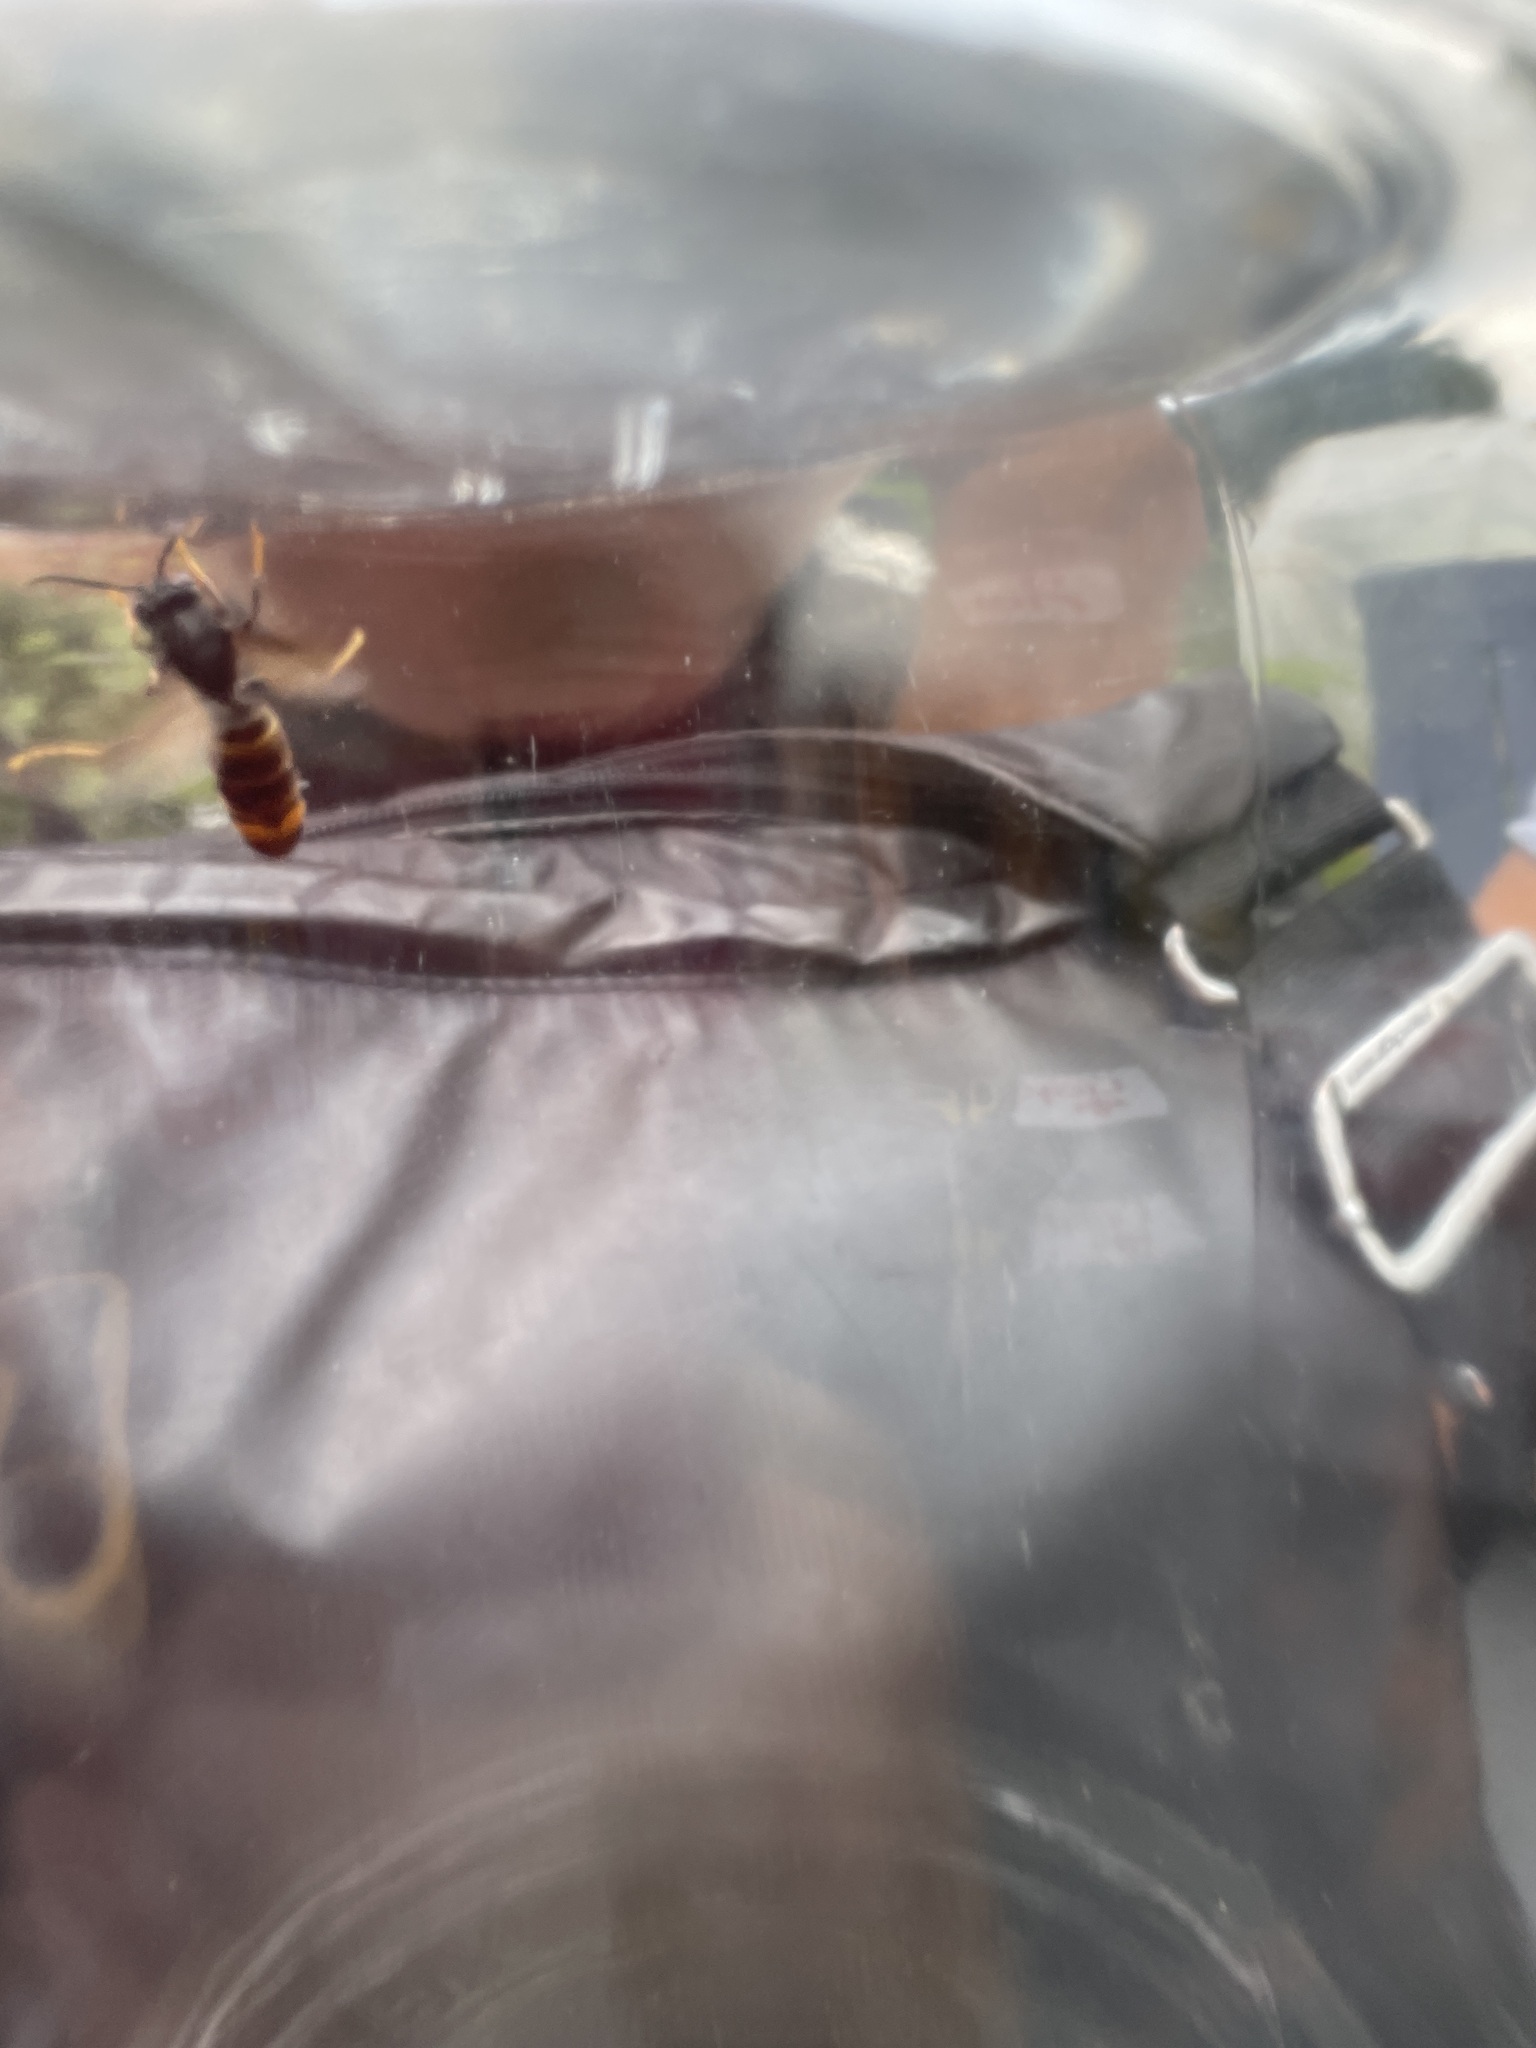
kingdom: Animalia
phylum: Arthropoda
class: Insecta
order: Hymenoptera
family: Vespidae
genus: Vespa
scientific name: Vespa velutina
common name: Asian hornet
